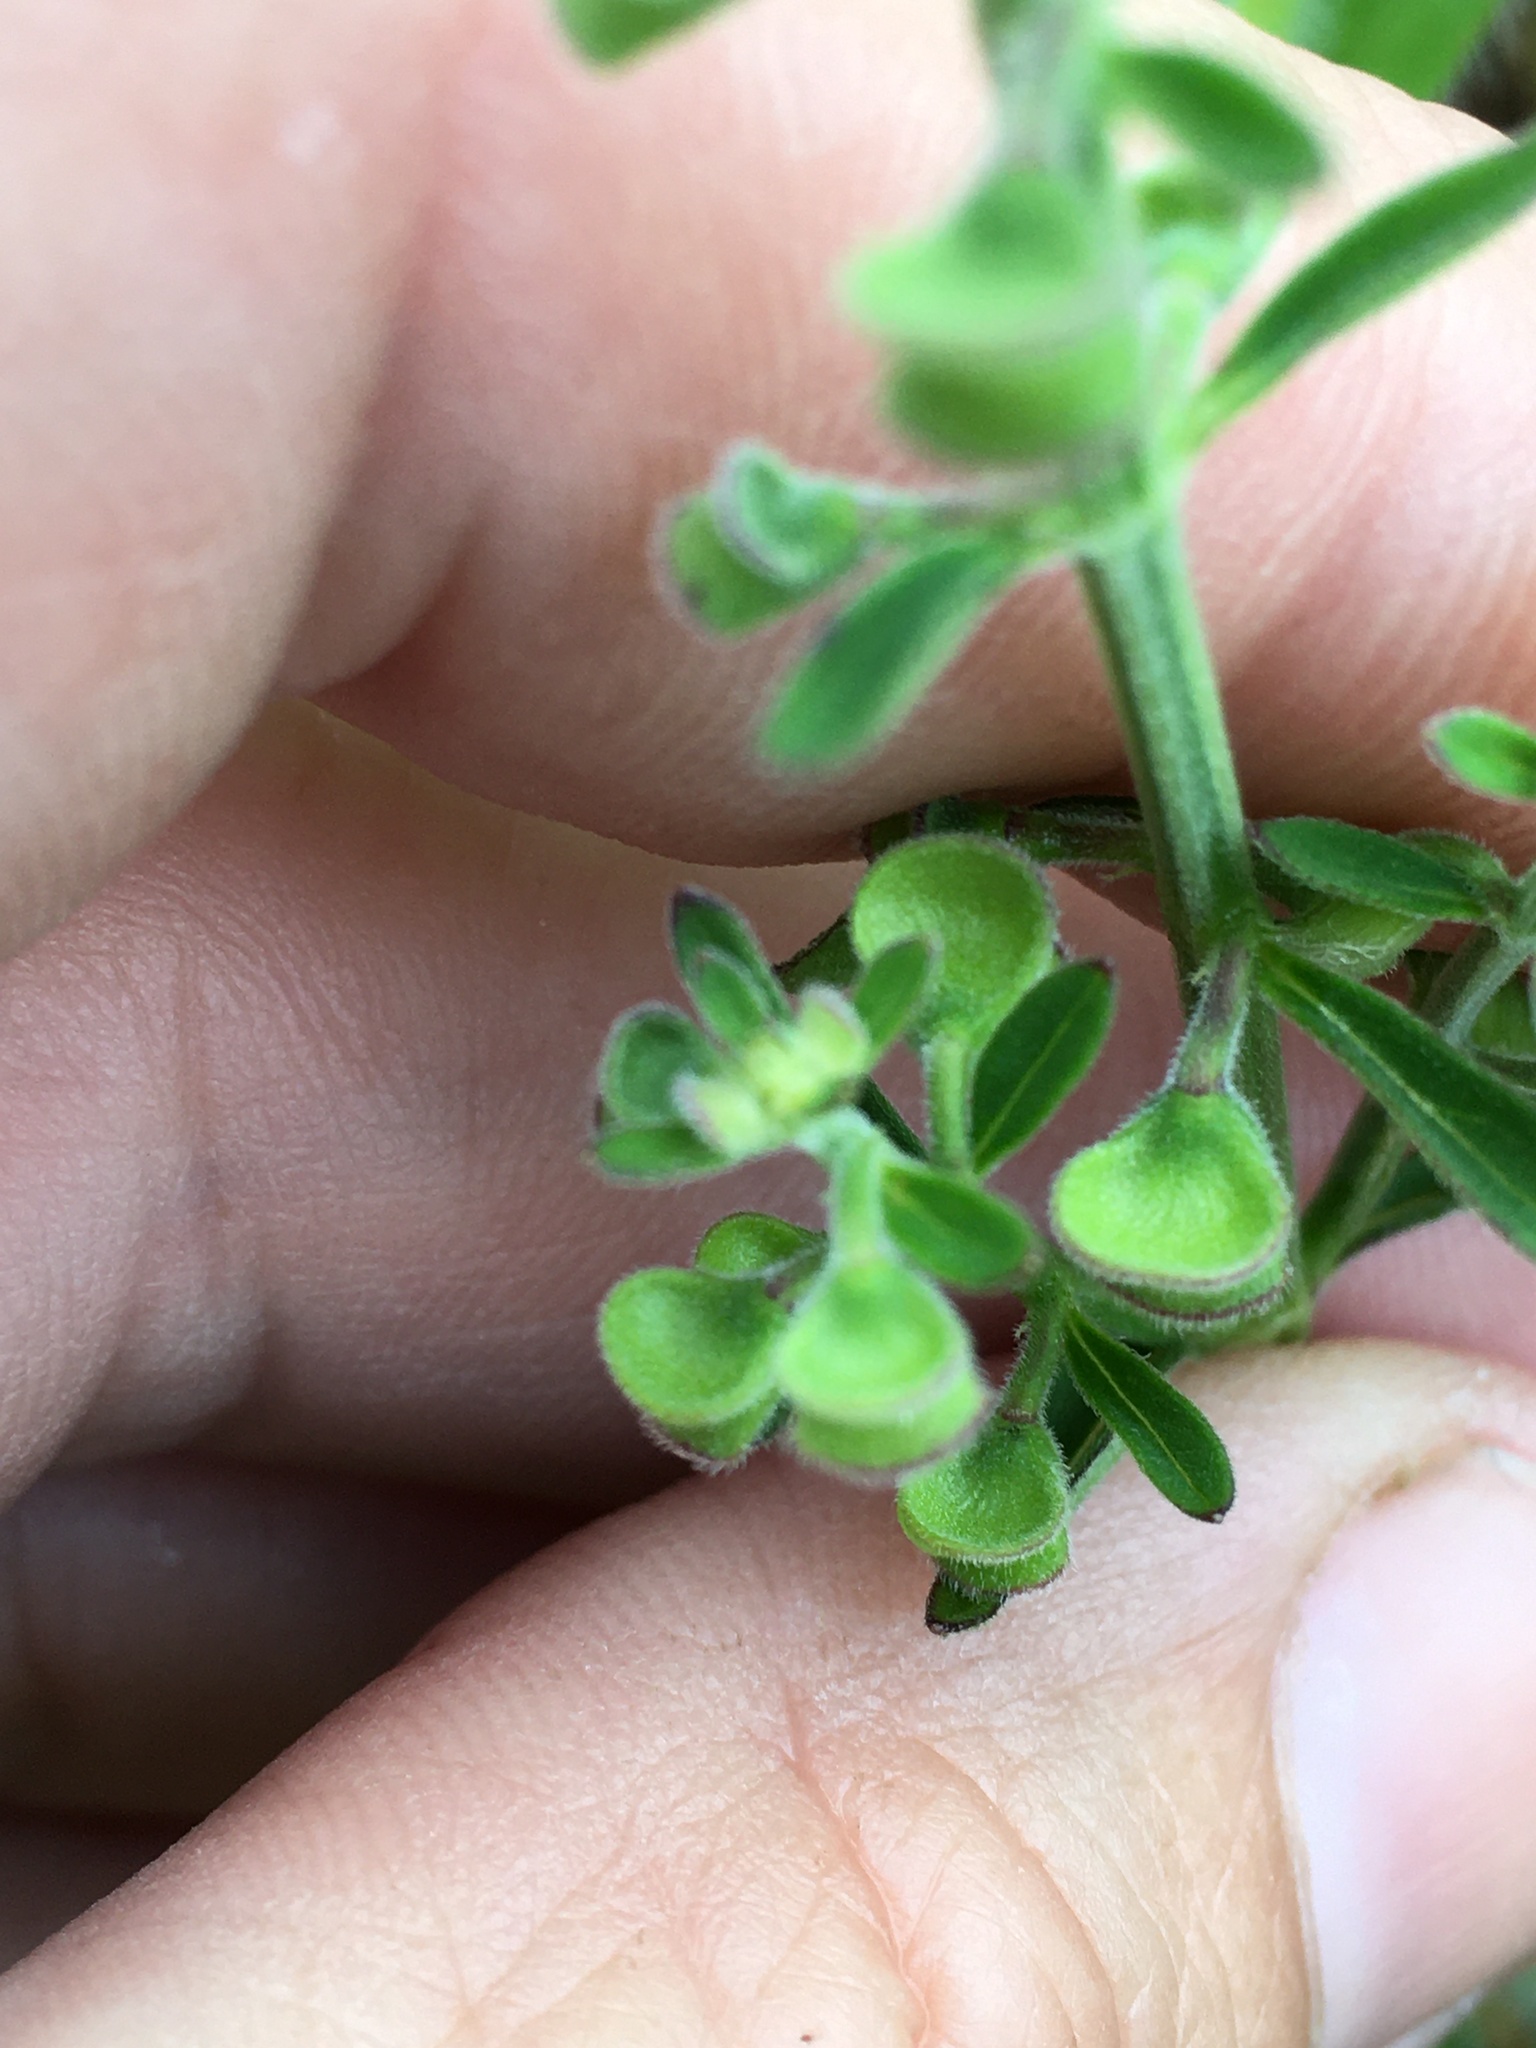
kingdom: Plantae
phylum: Tracheophyta
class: Magnoliopsida
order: Lamiales
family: Lamiaceae
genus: Scutellaria
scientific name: Scutellaria integrifolia
